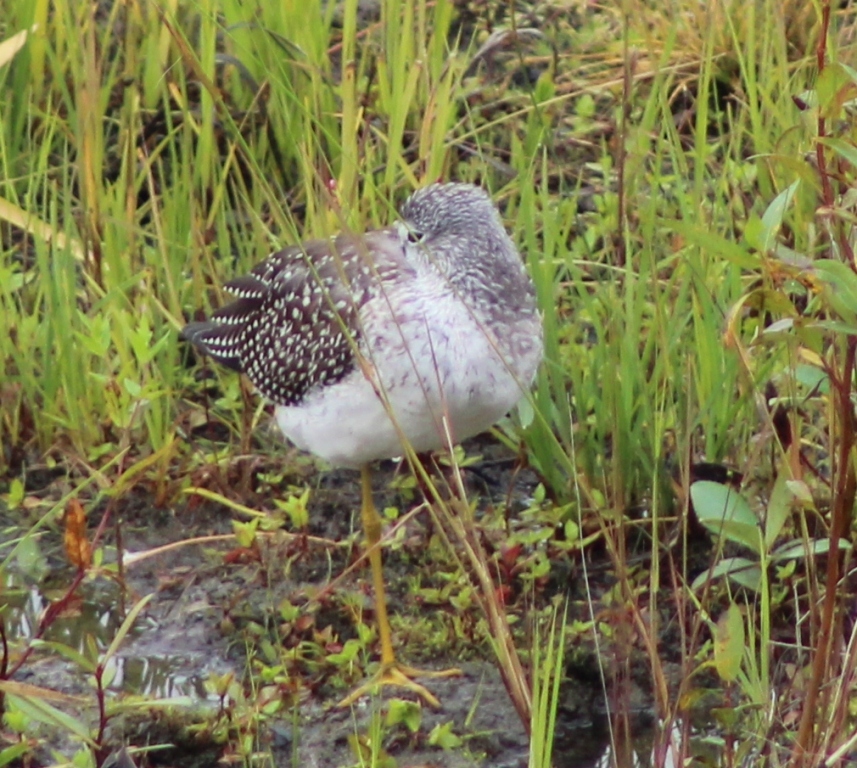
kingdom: Animalia
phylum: Chordata
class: Aves
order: Charadriiformes
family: Scolopacidae
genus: Tringa
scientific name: Tringa melanoleuca
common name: Greater yellowlegs
